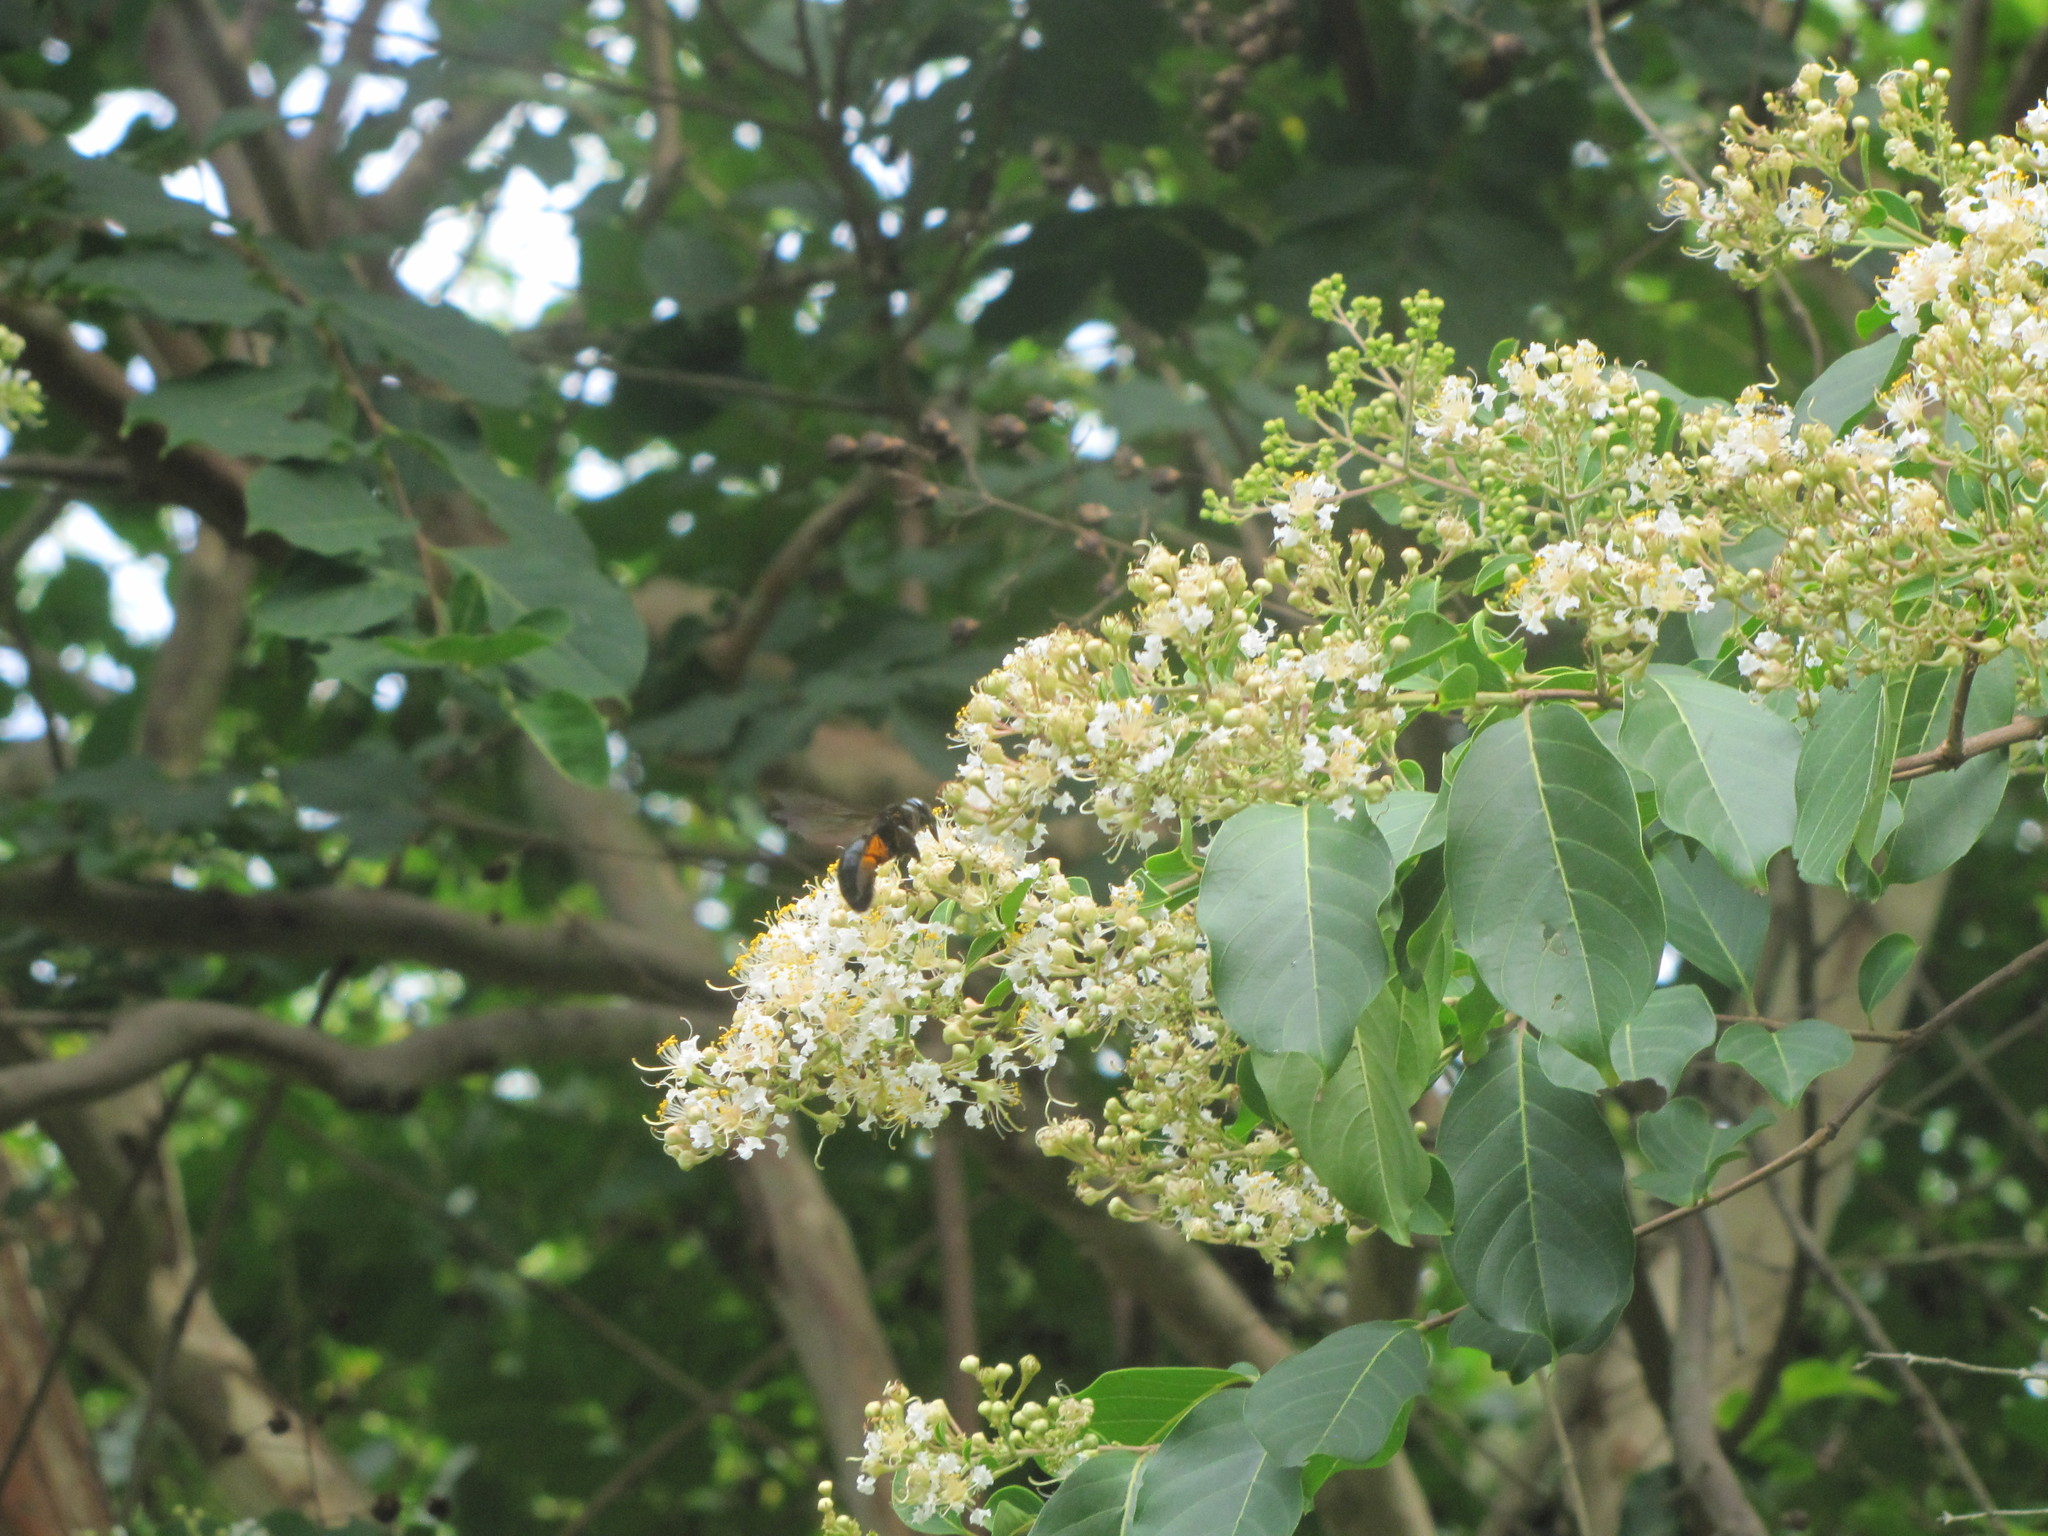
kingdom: Animalia
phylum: Arthropoda
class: Insecta
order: Hymenoptera
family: Apidae
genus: Xylocopa
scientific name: Xylocopa tranquebarorum
